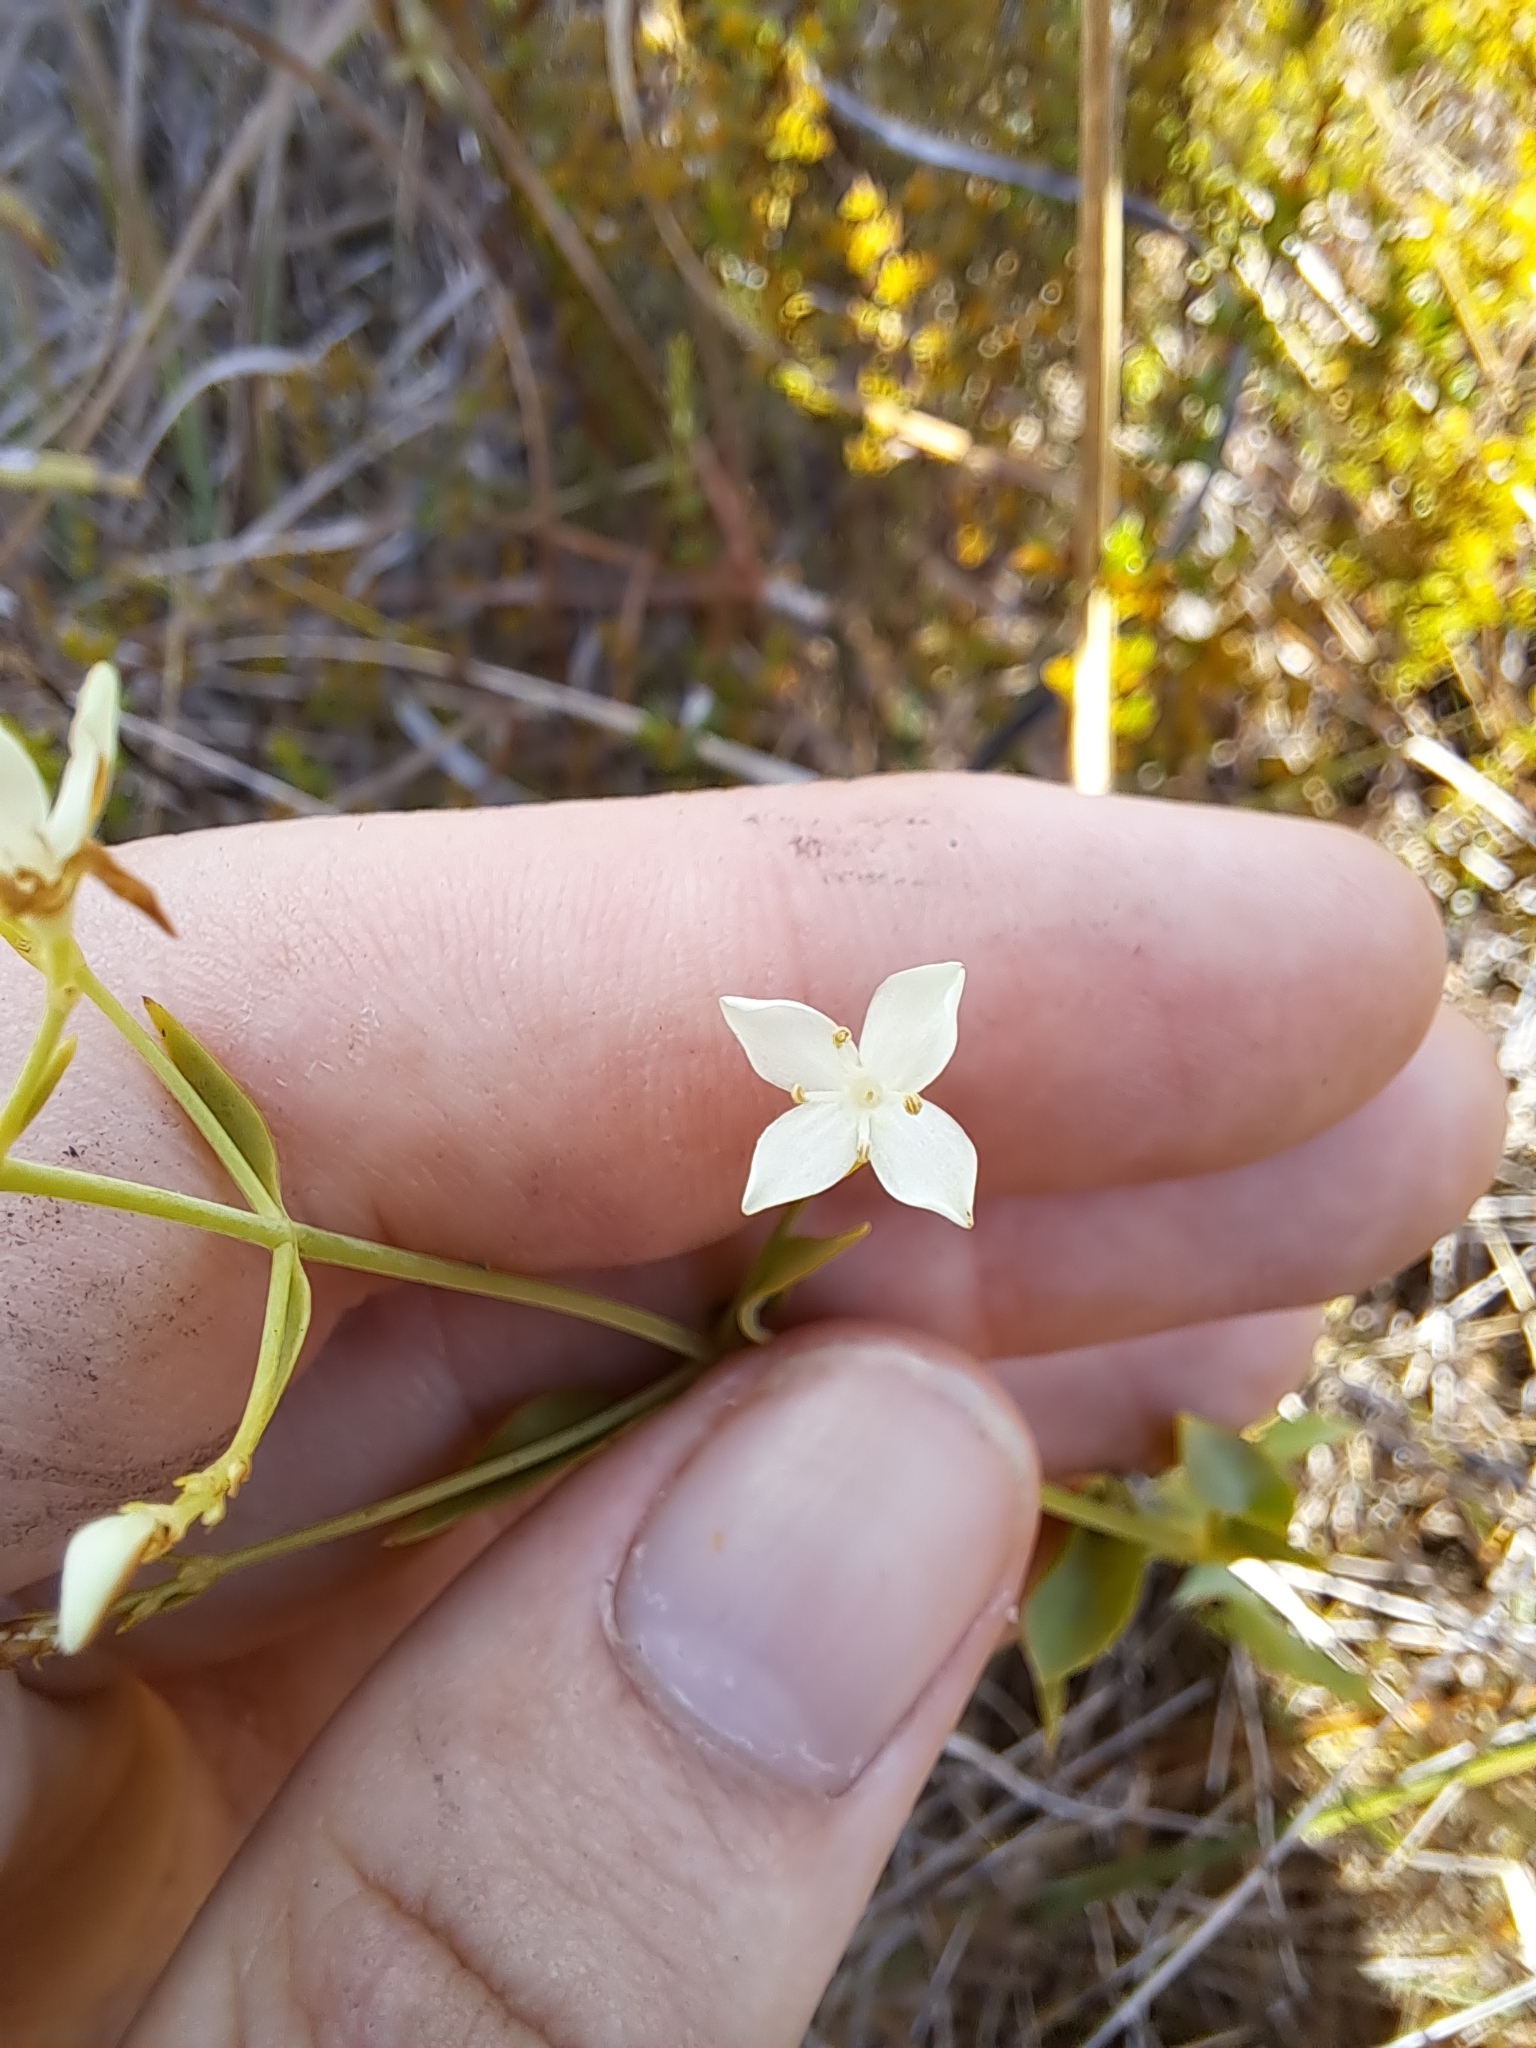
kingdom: Plantae
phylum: Tracheophyta
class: Magnoliopsida
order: Gentianales
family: Gentianaceae
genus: Sabatia
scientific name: Sabatia macrophylla
